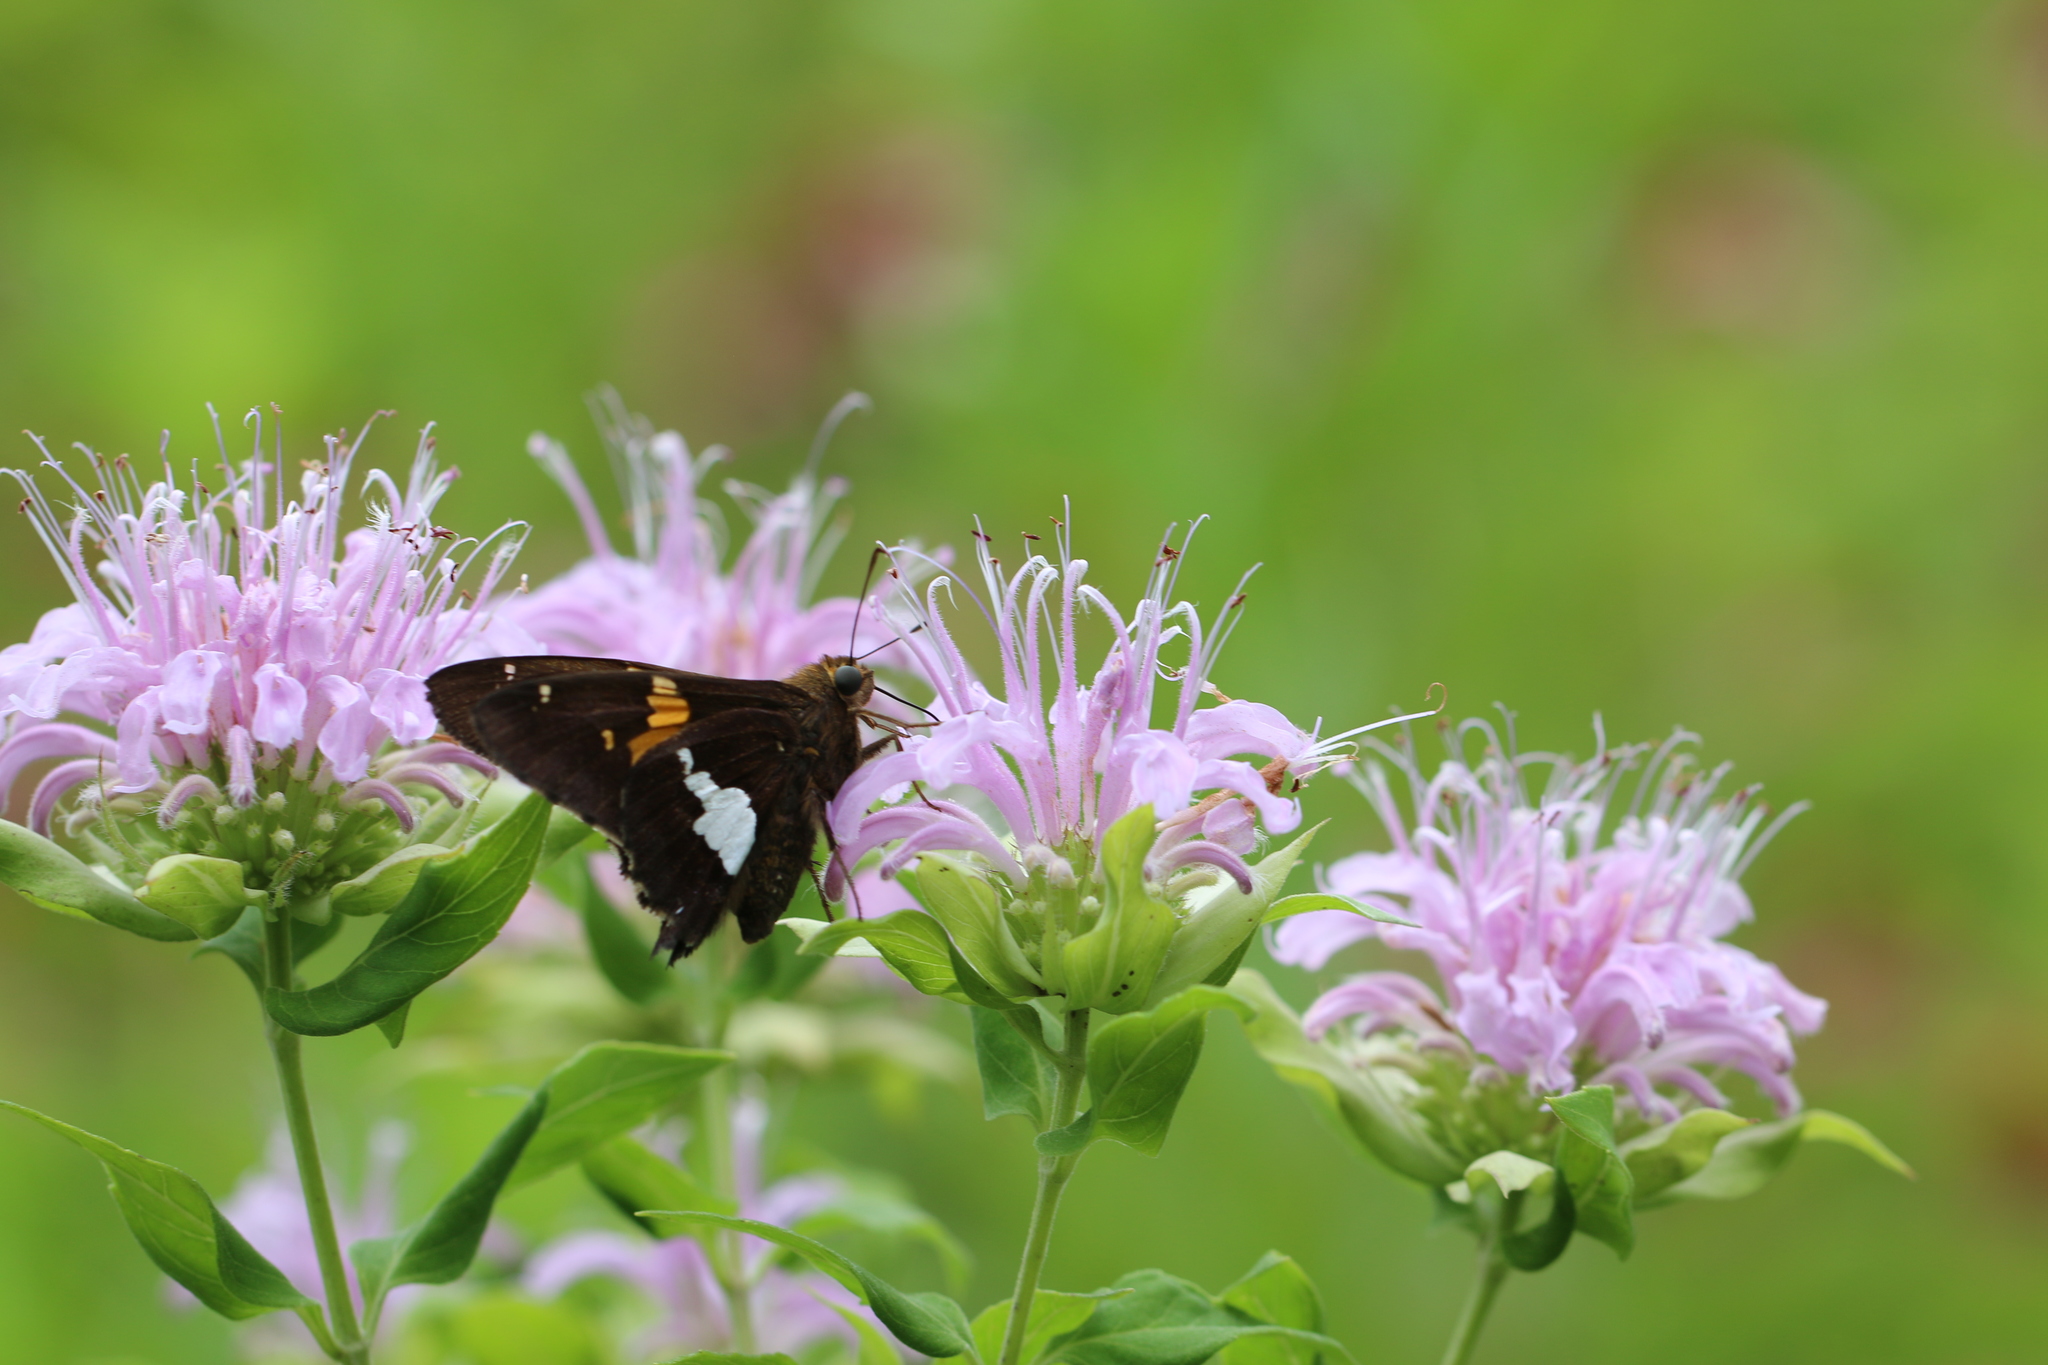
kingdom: Animalia
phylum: Arthropoda
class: Insecta
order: Lepidoptera
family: Hesperiidae
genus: Epargyreus
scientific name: Epargyreus clarus
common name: Silver-spotted skipper
